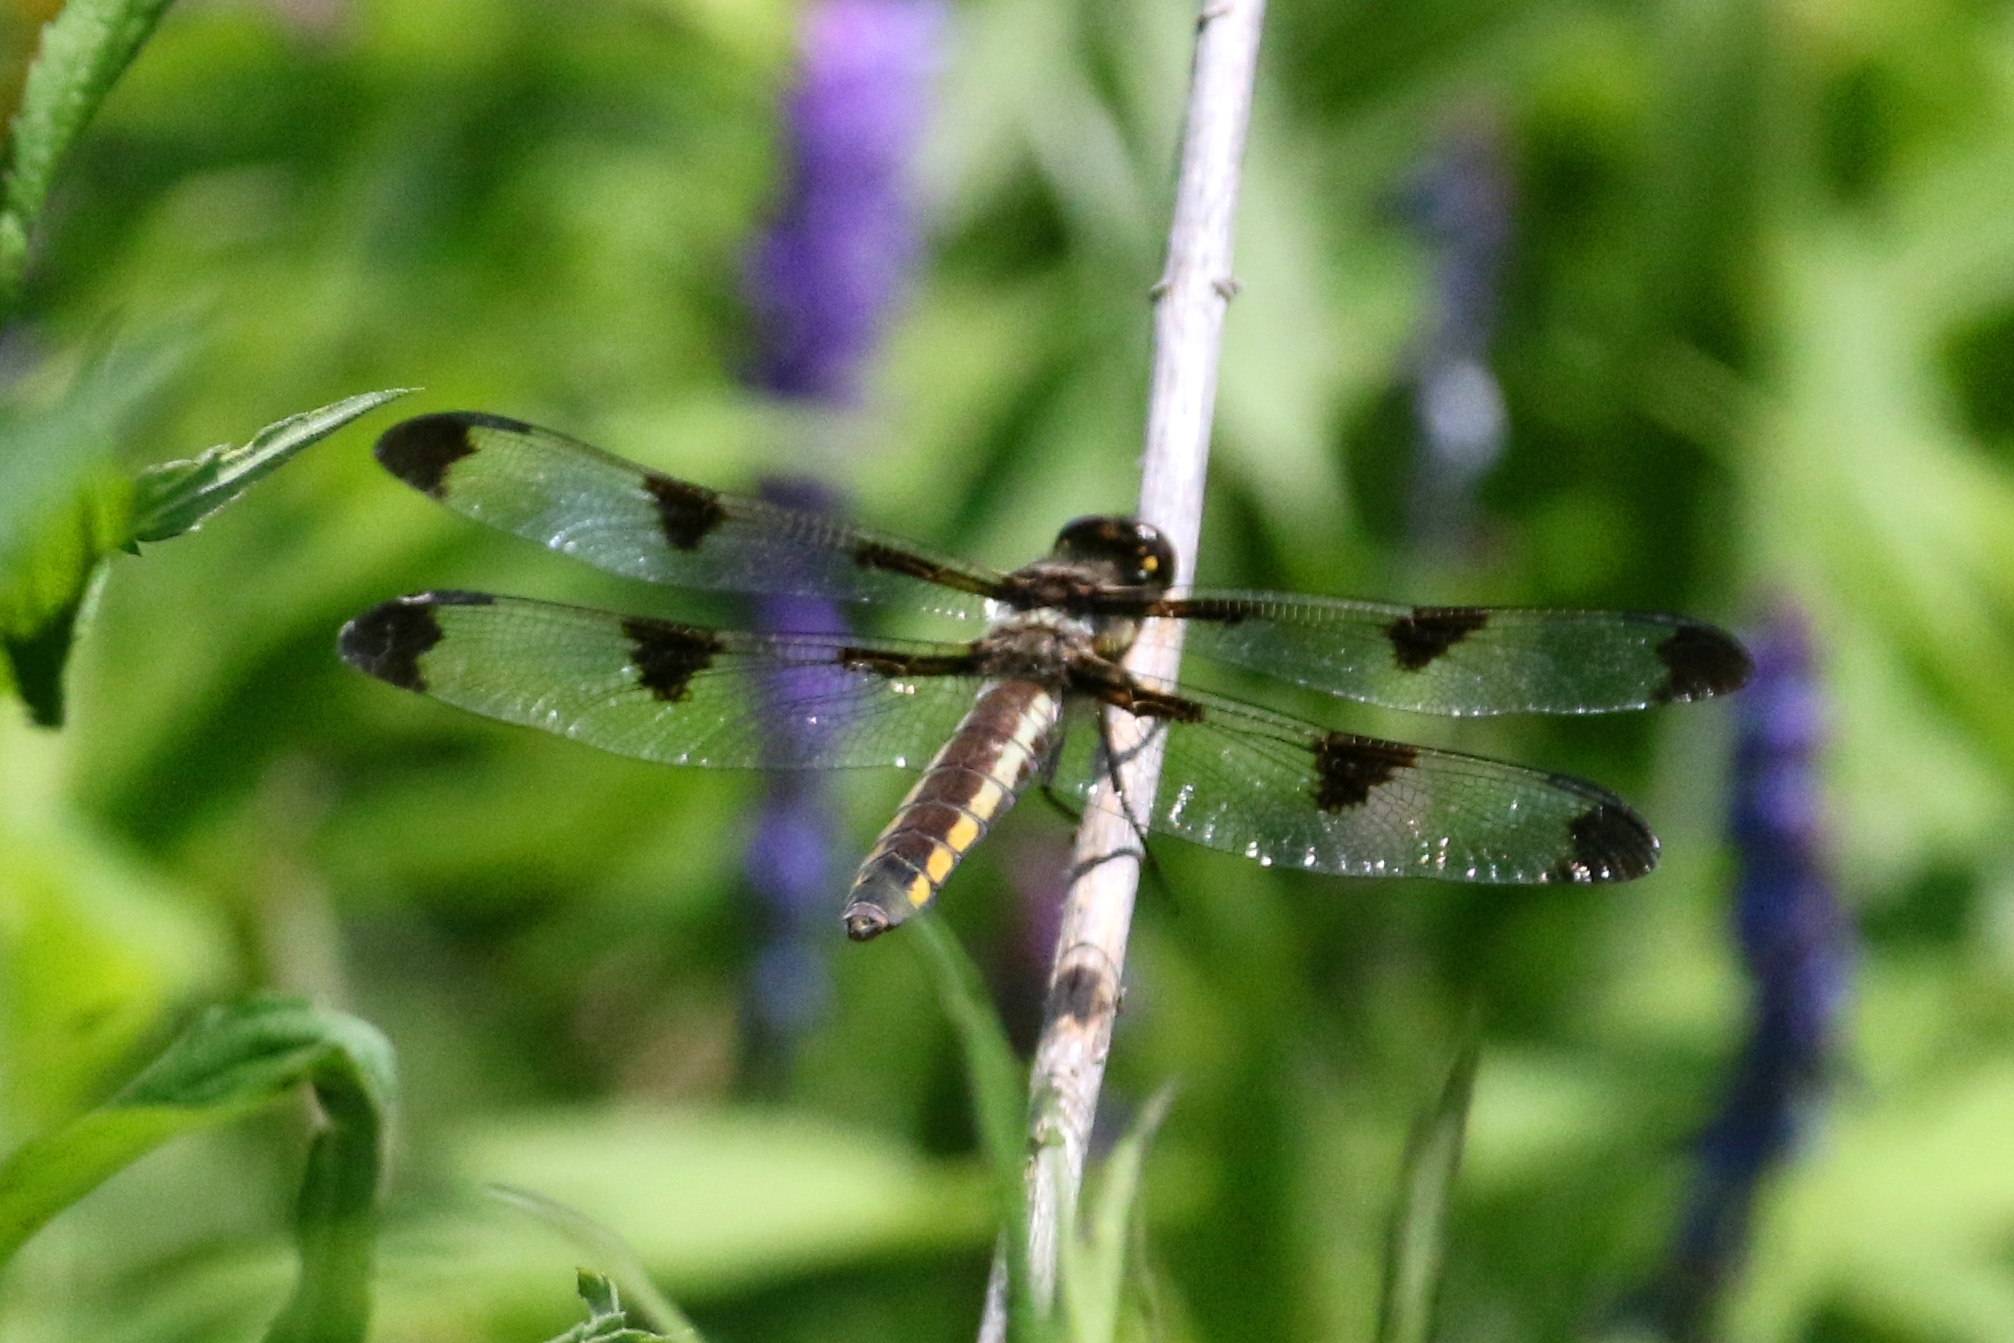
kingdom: Animalia
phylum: Arthropoda
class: Insecta
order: Odonata
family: Libellulidae
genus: Libellula
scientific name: Libellula pulchella
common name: Twelve-spotted skimmer
